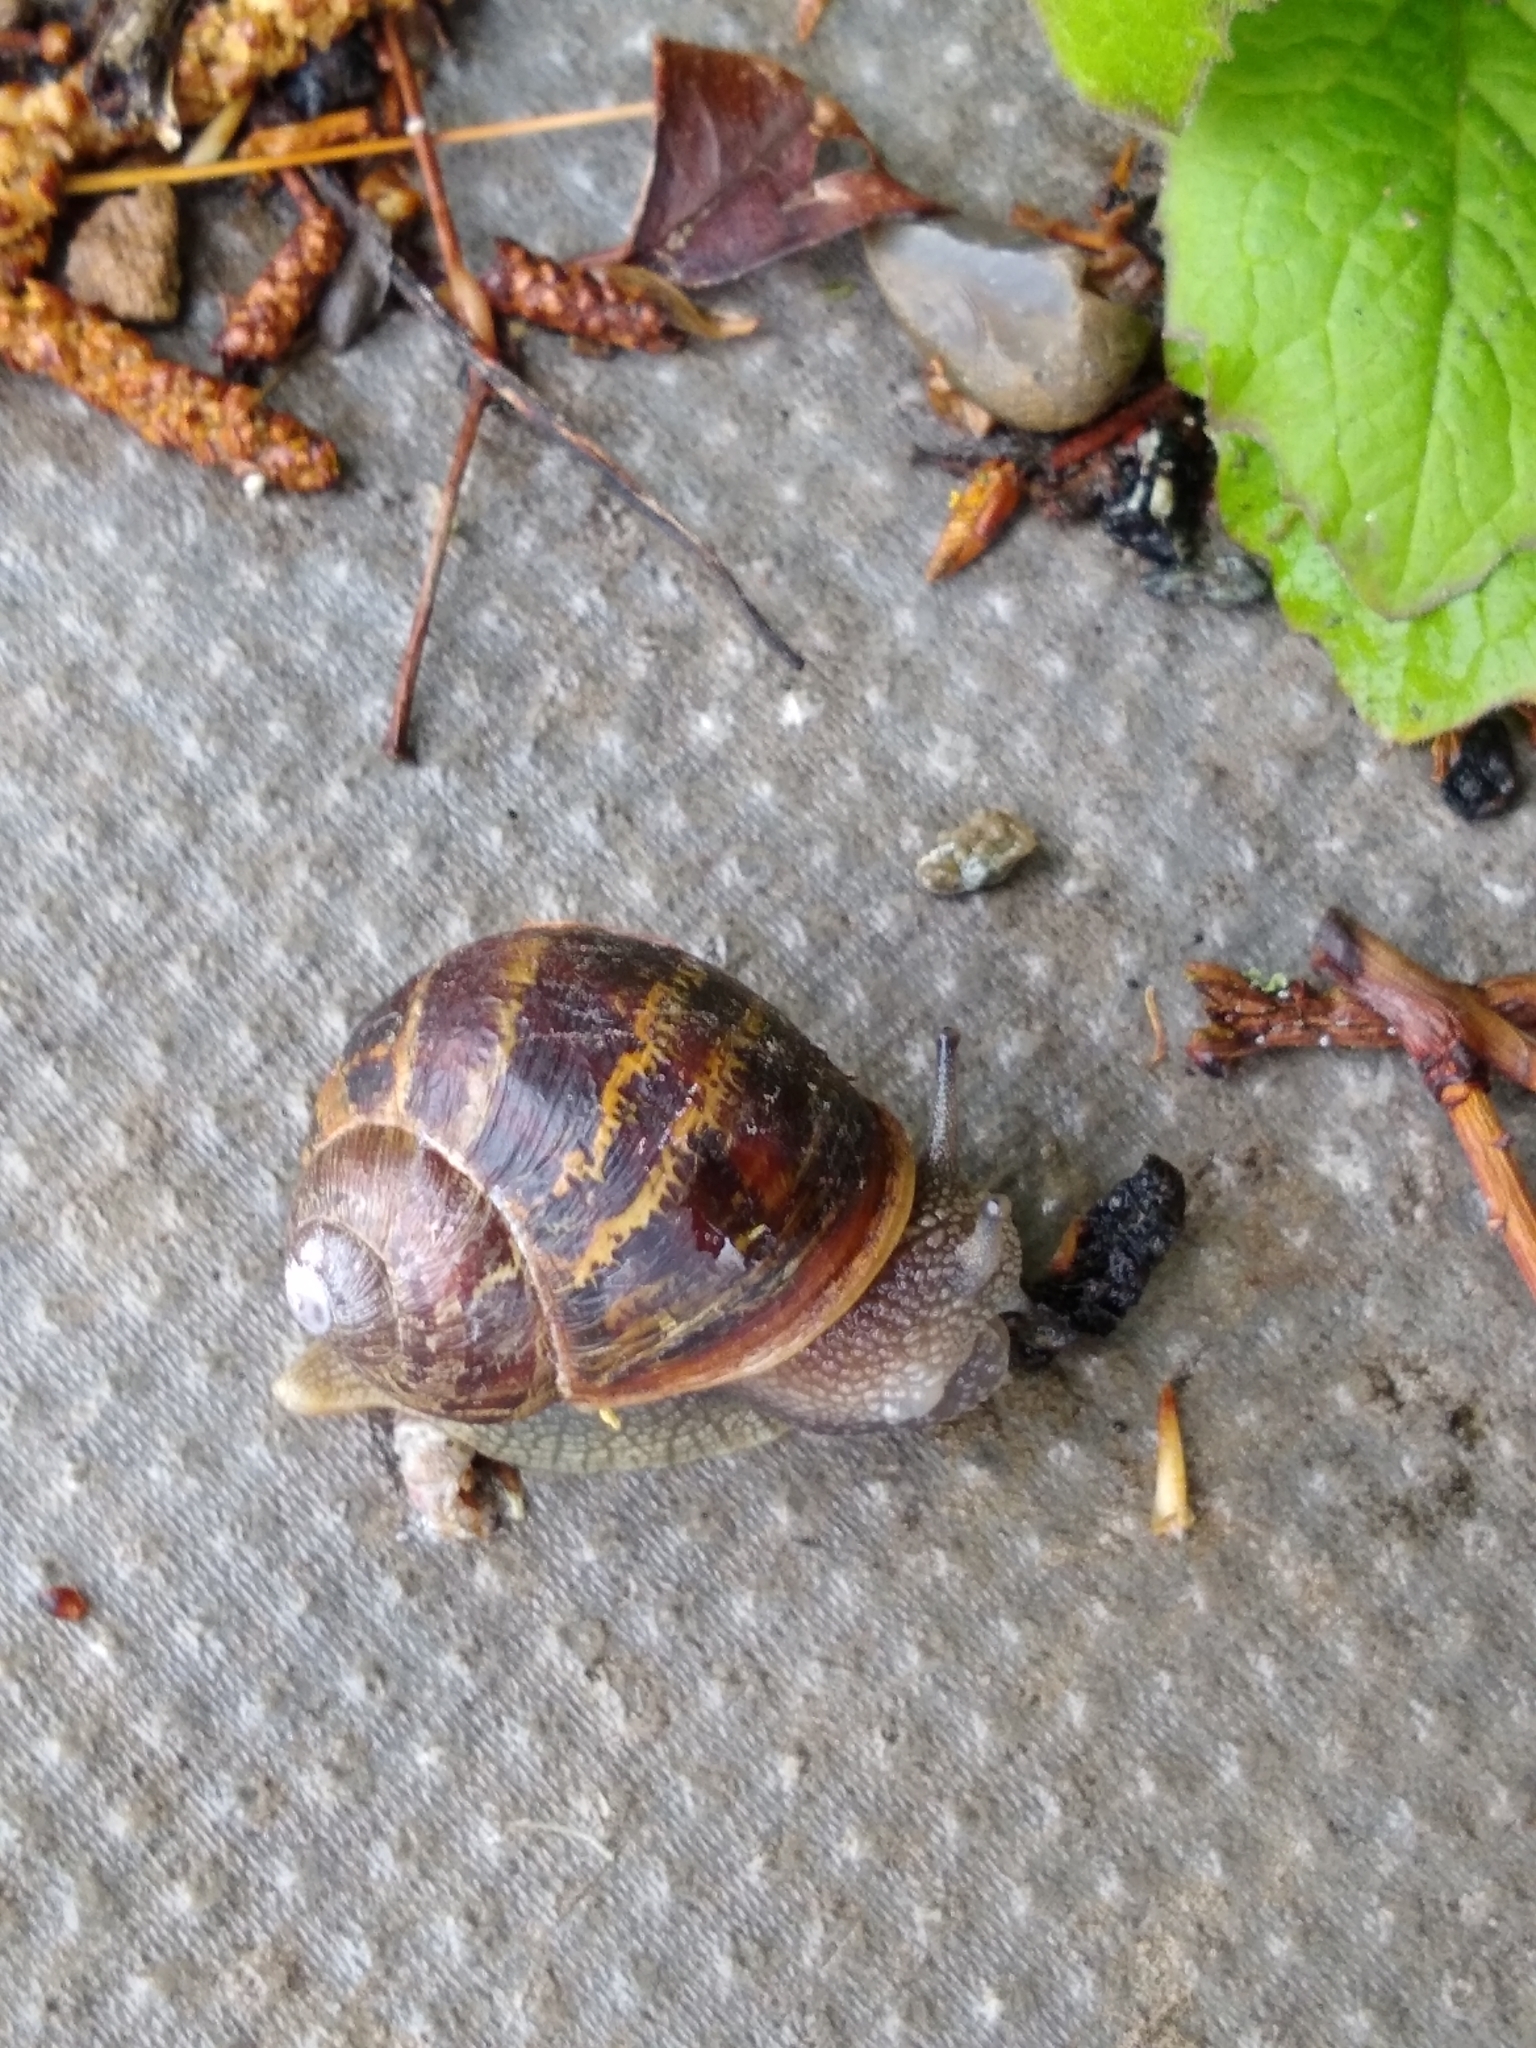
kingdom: Animalia
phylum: Mollusca
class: Gastropoda
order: Stylommatophora
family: Helicidae
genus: Cornu
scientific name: Cornu aspersum
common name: Brown garden snail
